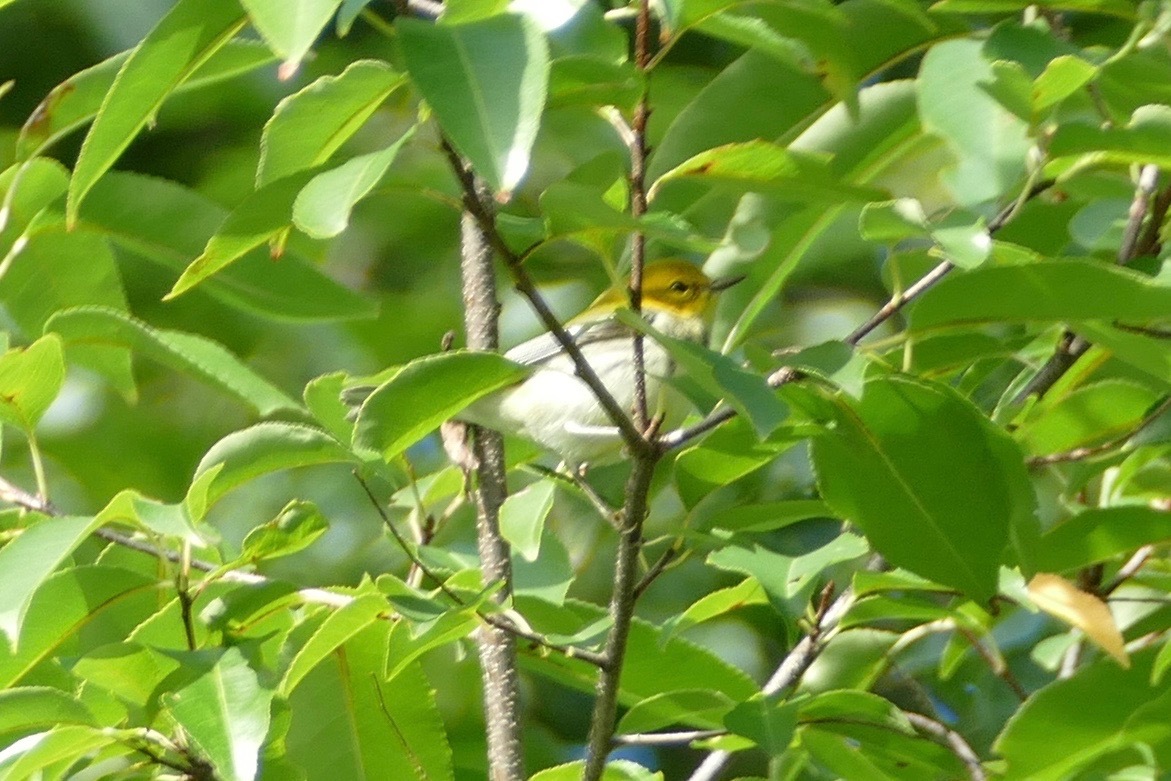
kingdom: Animalia
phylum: Chordata
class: Aves
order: Passeriformes
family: Parulidae
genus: Setophaga
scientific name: Setophaga virens
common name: Black-throated green warbler
